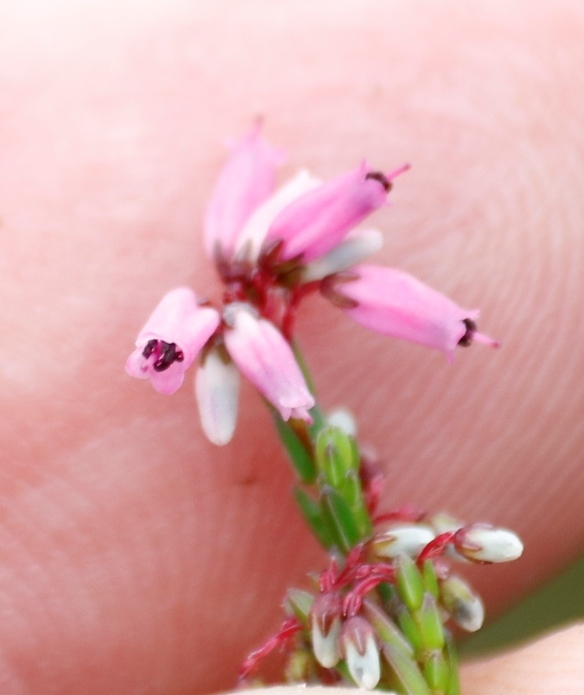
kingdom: Plantae
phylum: Tracheophyta
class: Magnoliopsida
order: Ericales
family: Ericaceae
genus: Erica
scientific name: Erica equisetifolia
